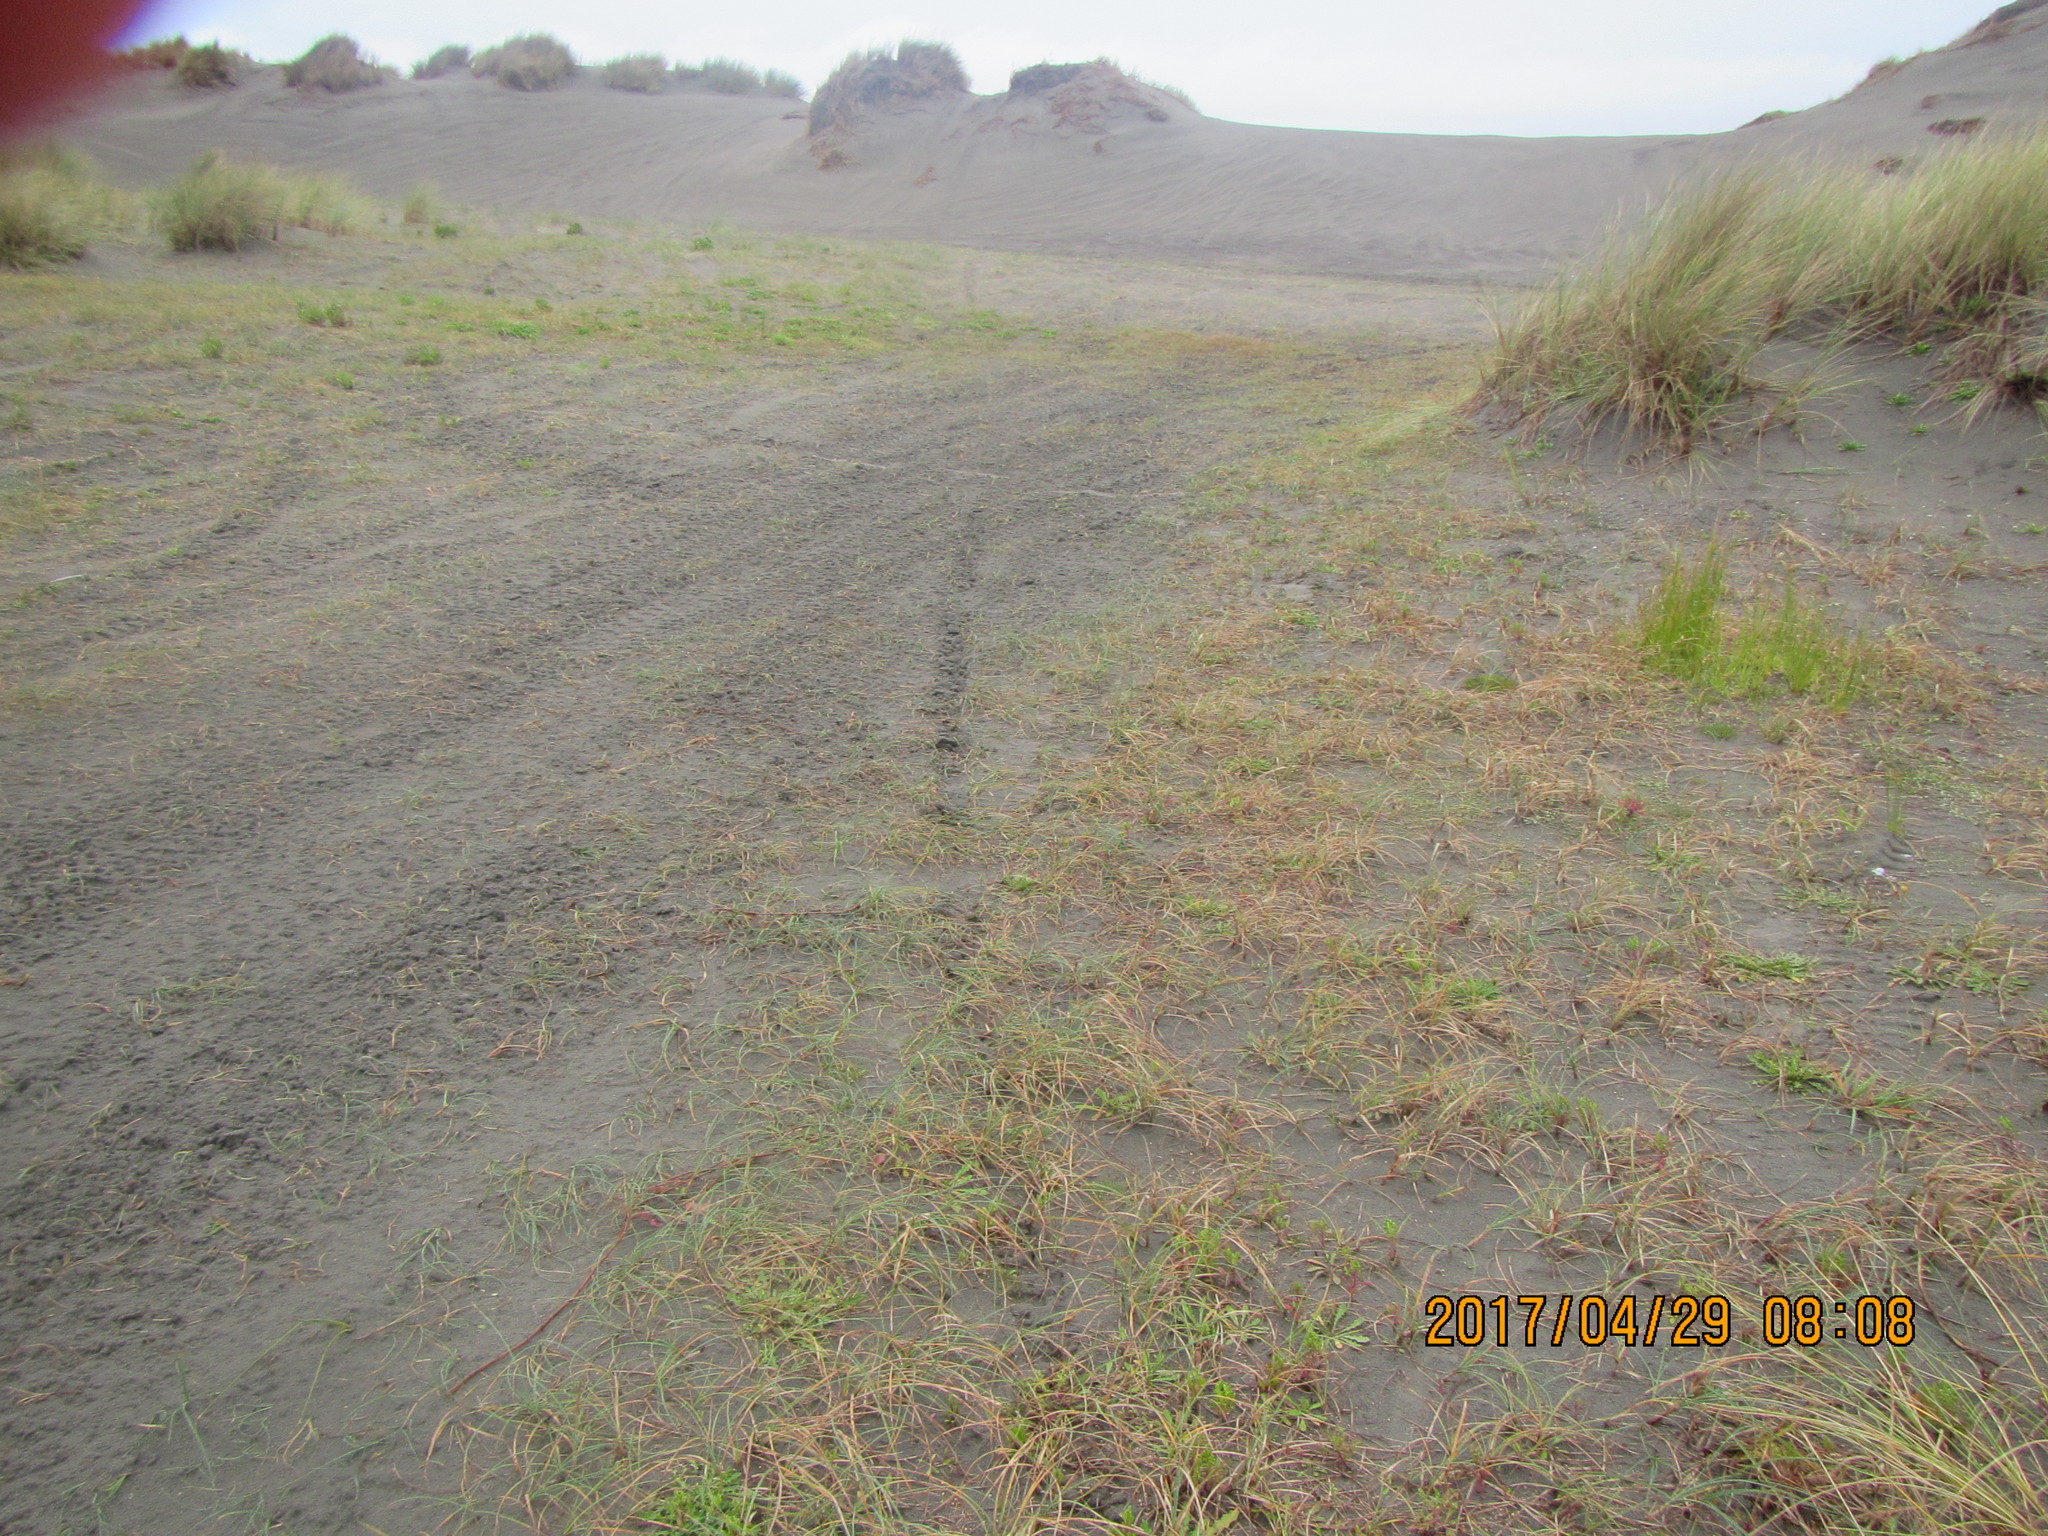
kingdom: Plantae
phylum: Tracheophyta
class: Liliopsida
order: Poales
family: Cyperaceae
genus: Carex
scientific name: Carex pumila
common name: Dwarf sedge
